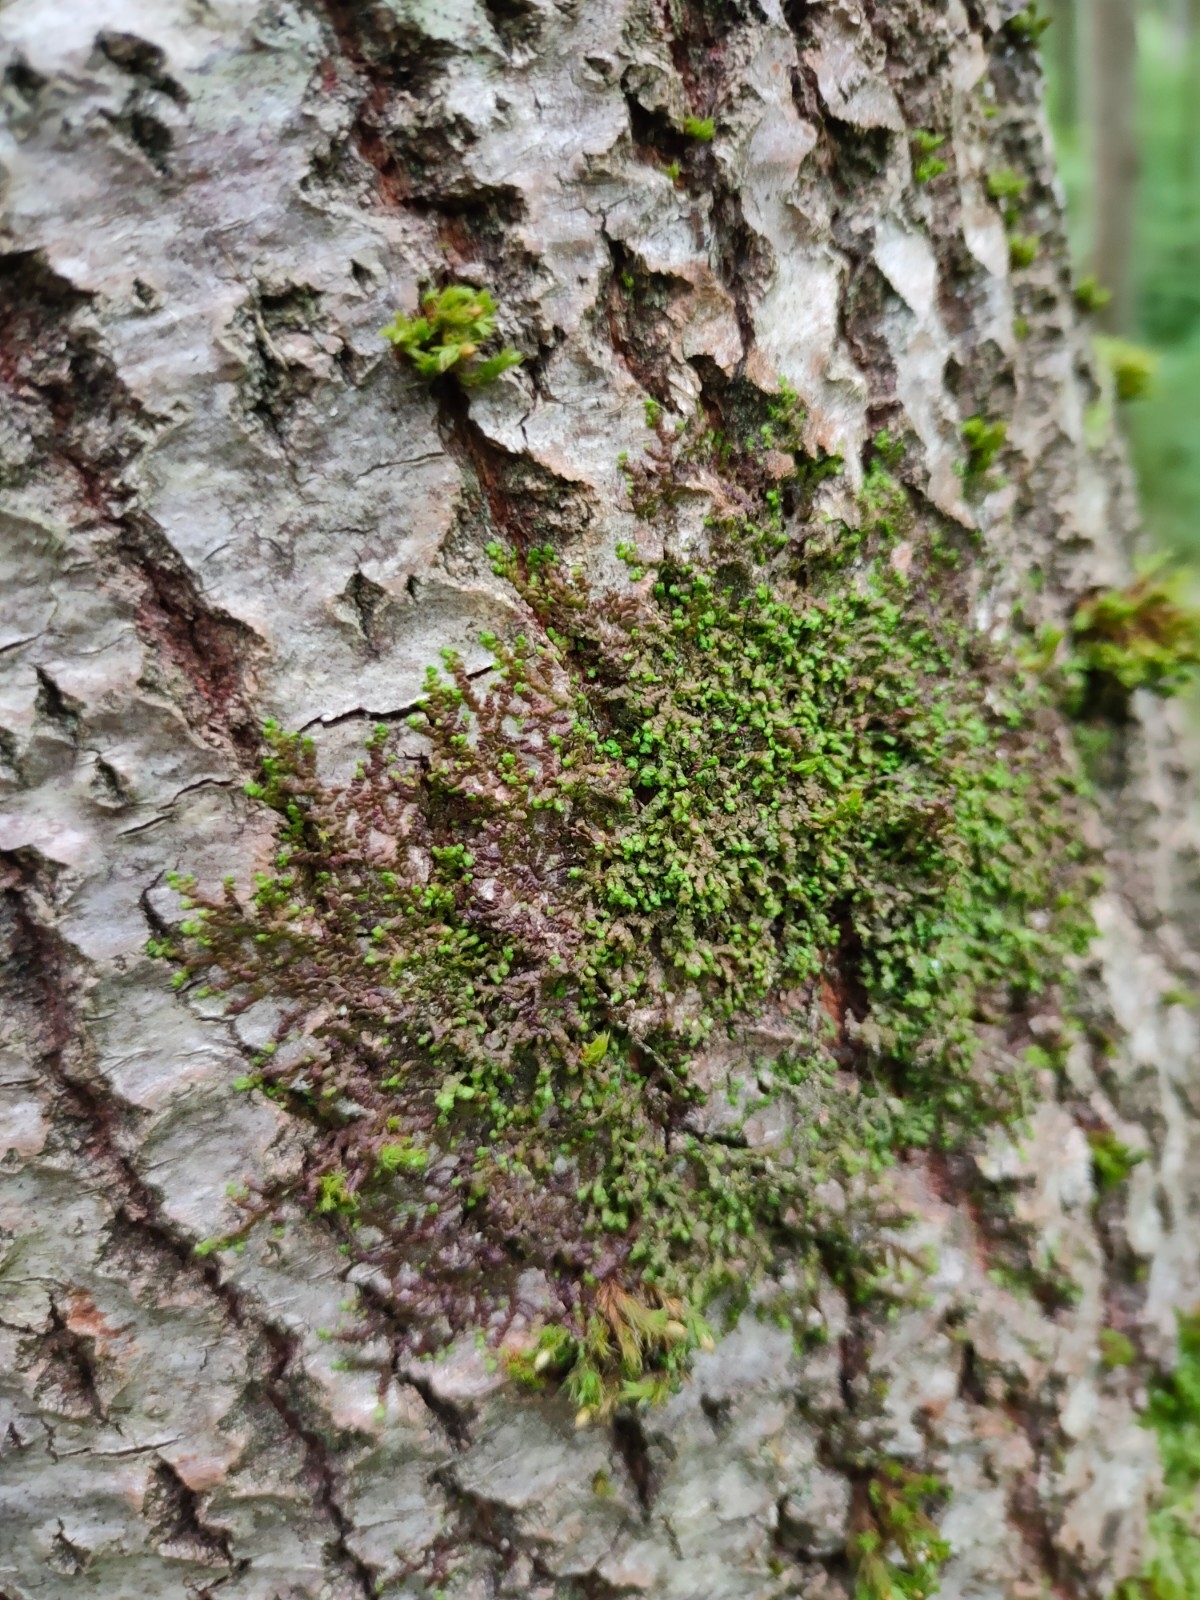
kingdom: Plantae
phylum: Marchantiophyta
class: Jungermanniopsida
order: Porellales
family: Frullaniaceae
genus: Frullania
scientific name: Frullania dilatata
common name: Dilated scalewort
